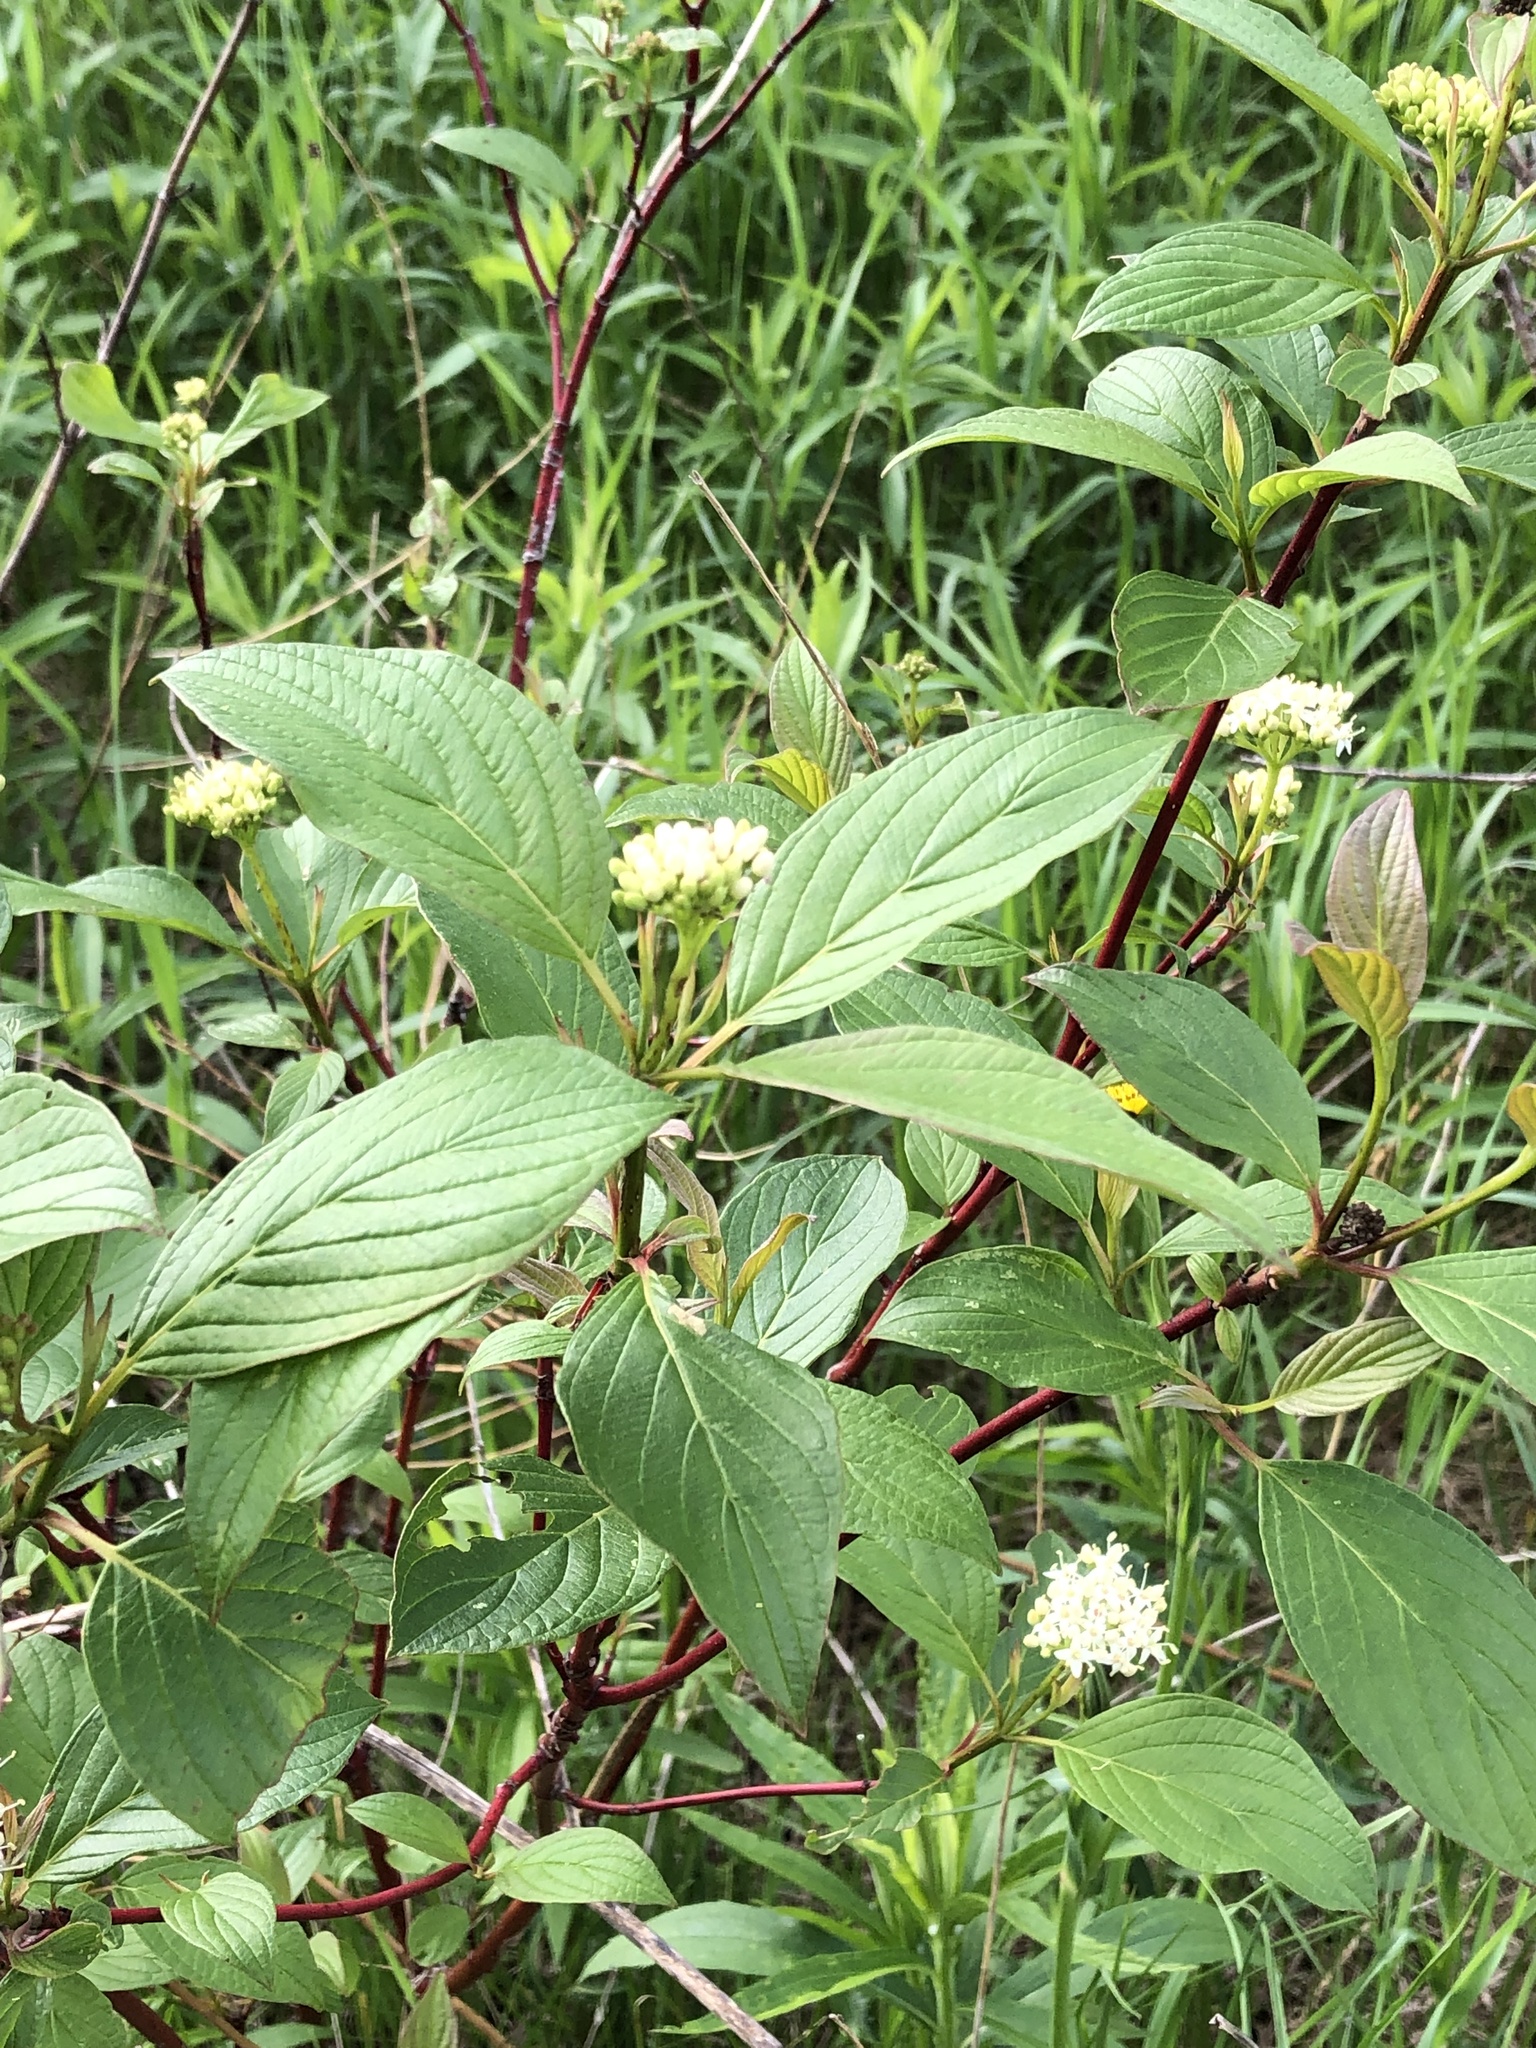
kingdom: Plantae
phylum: Tracheophyta
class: Magnoliopsida
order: Cornales
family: Cornaceae
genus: Cornus
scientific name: Cornus sericea
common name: Red-osier dogwood
